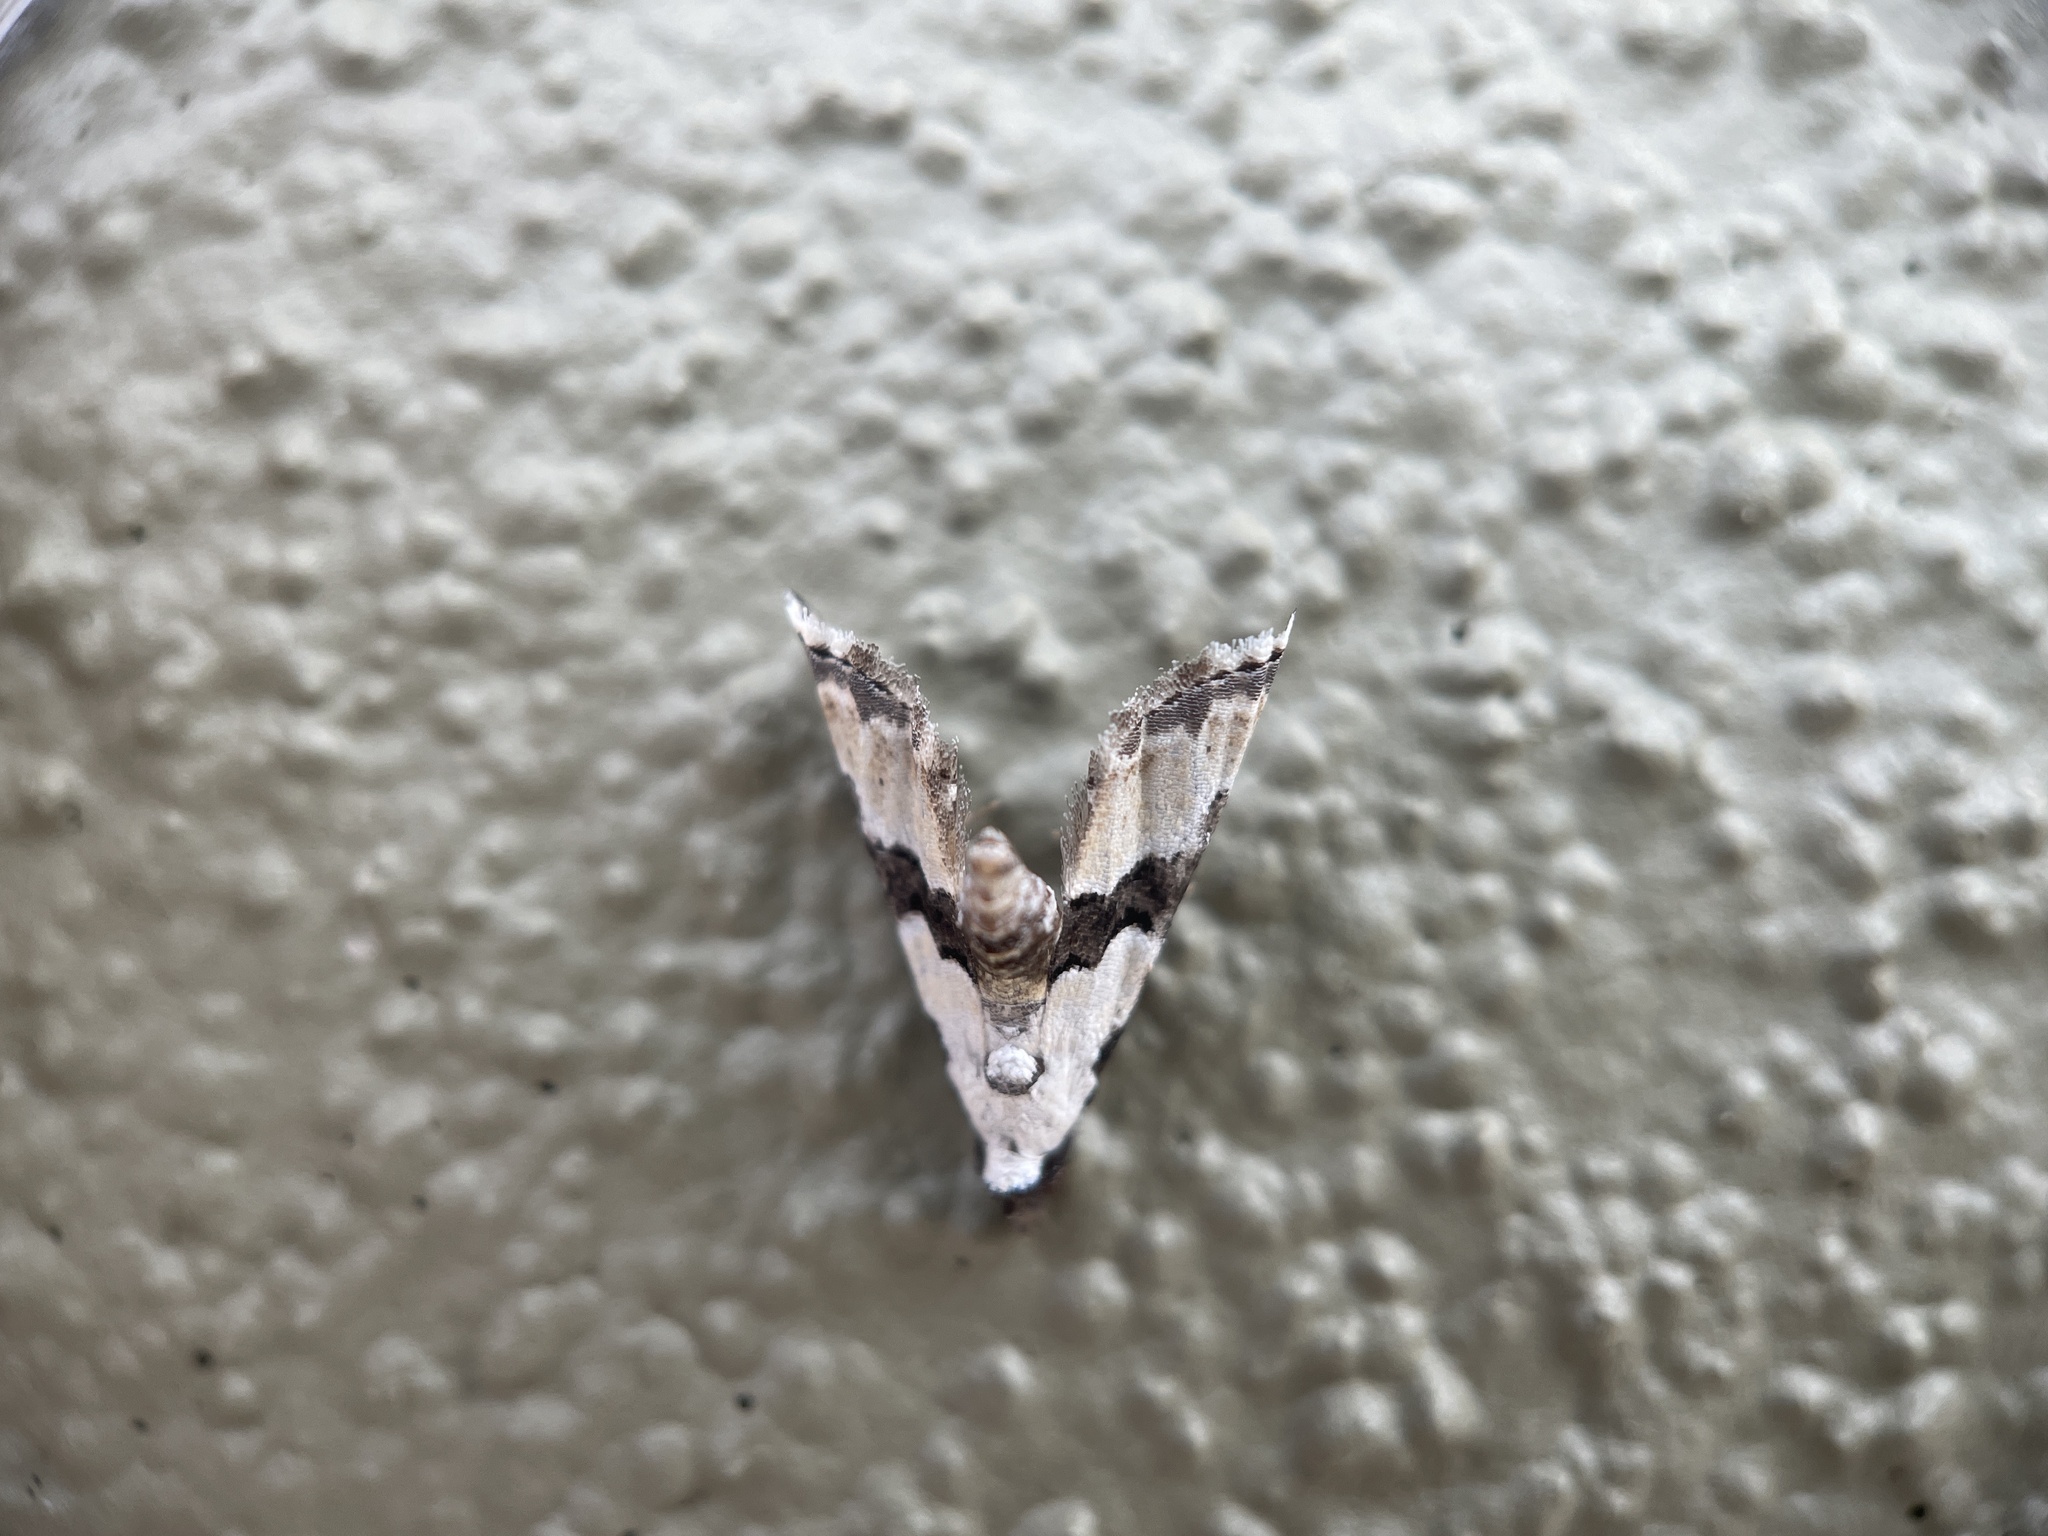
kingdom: Animalia
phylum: Arthropoda
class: Insecta
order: Lepidoptera
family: Noctuidae
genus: Nigetia
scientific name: Nigetia formosalis
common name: Thin-winged owlet
